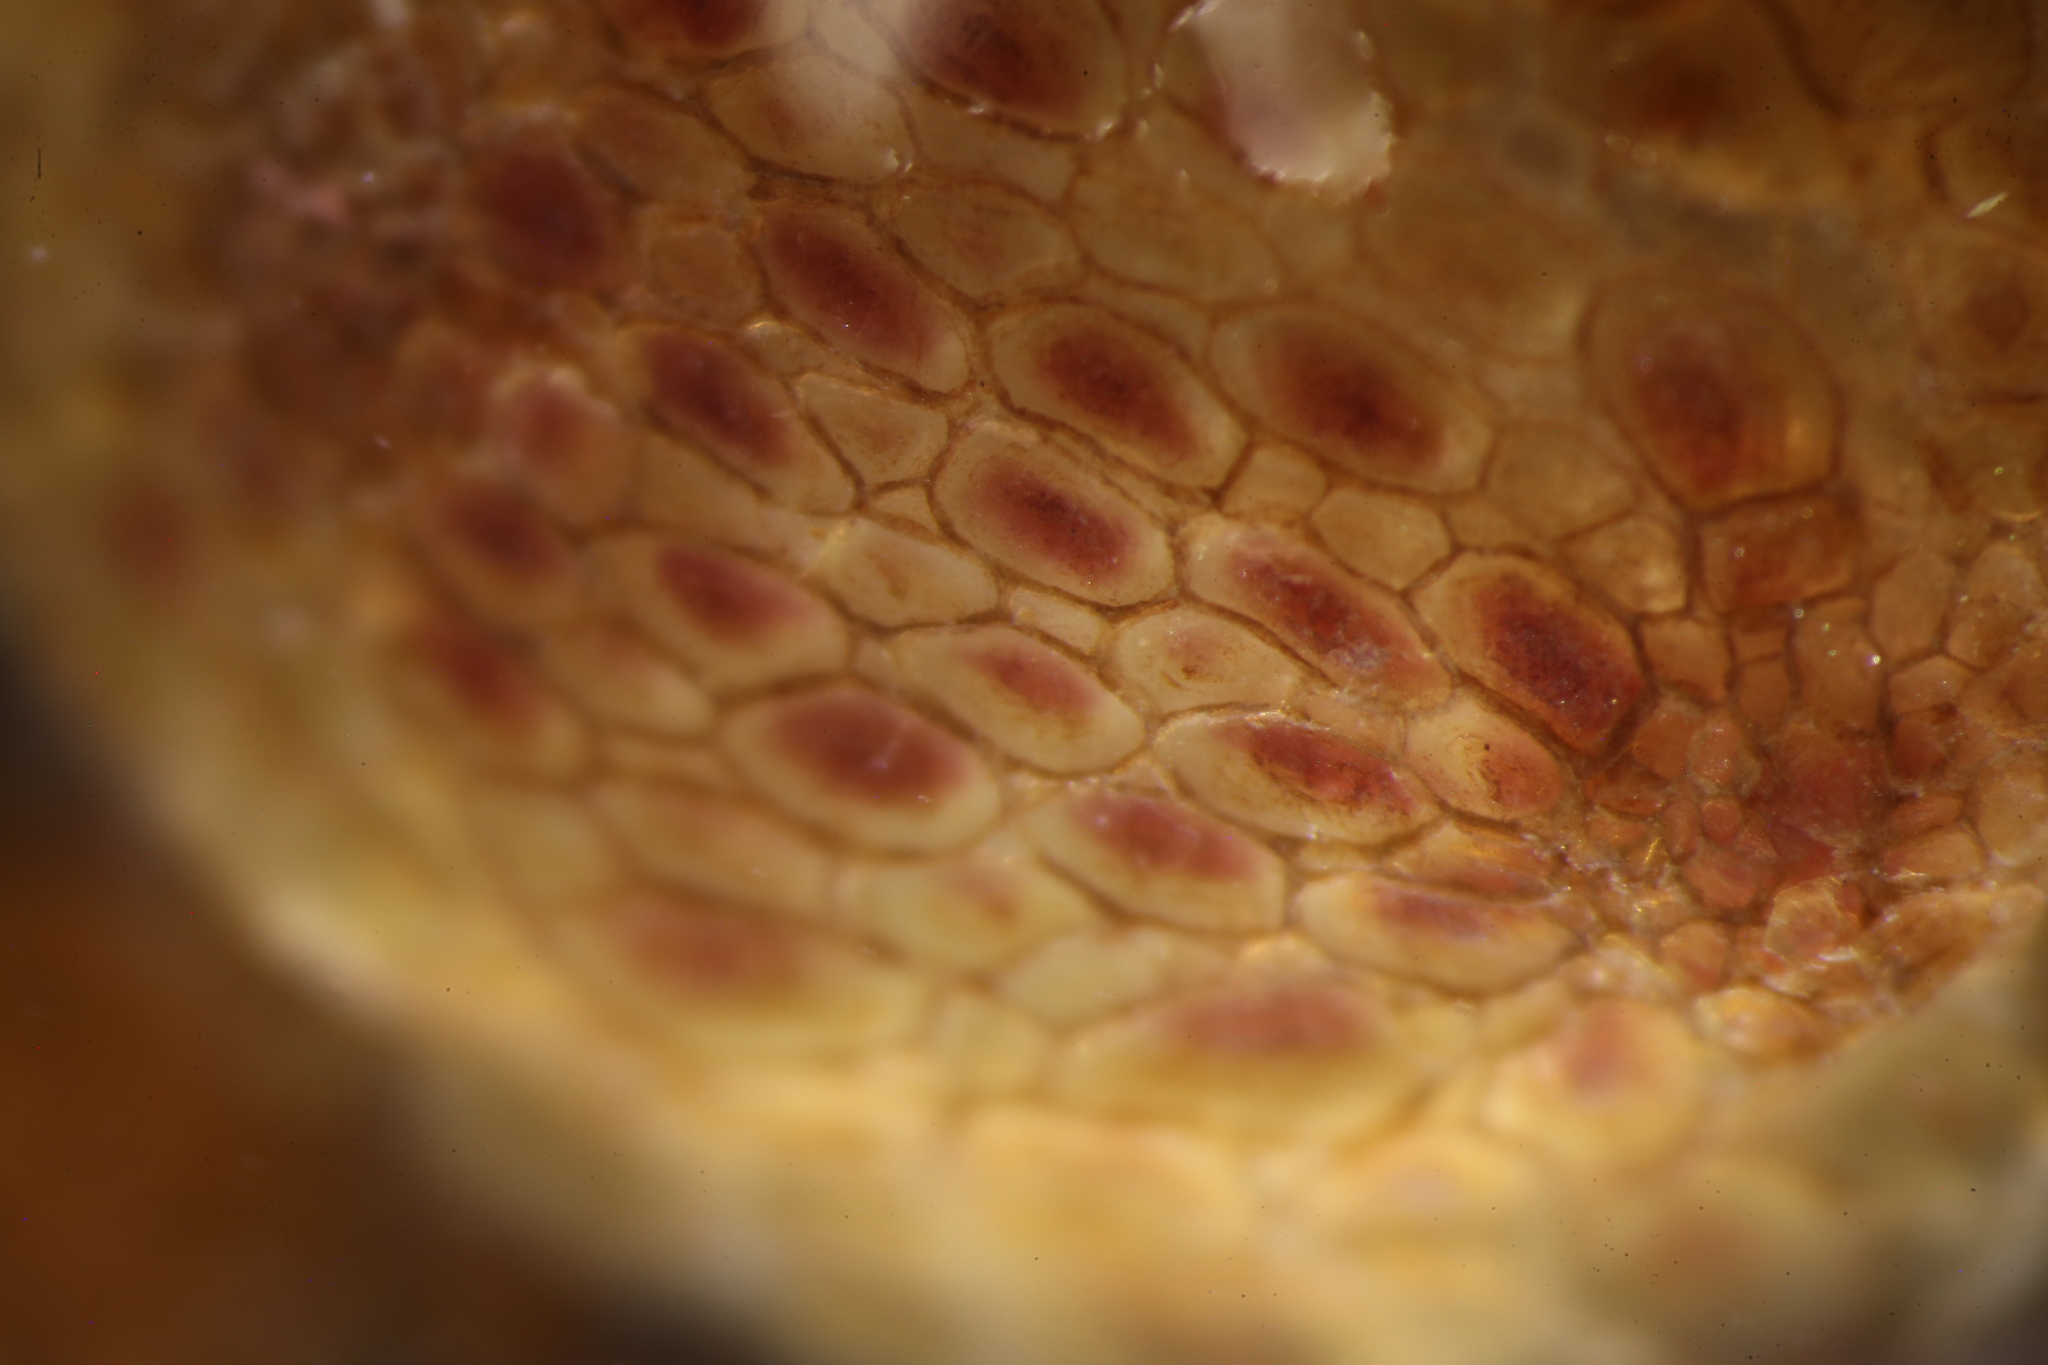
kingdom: Animalia
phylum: Chordata
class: Ascidiacea
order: Stolidobranchia
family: Pyuridae
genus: Pyura
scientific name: Pyura tessellata
